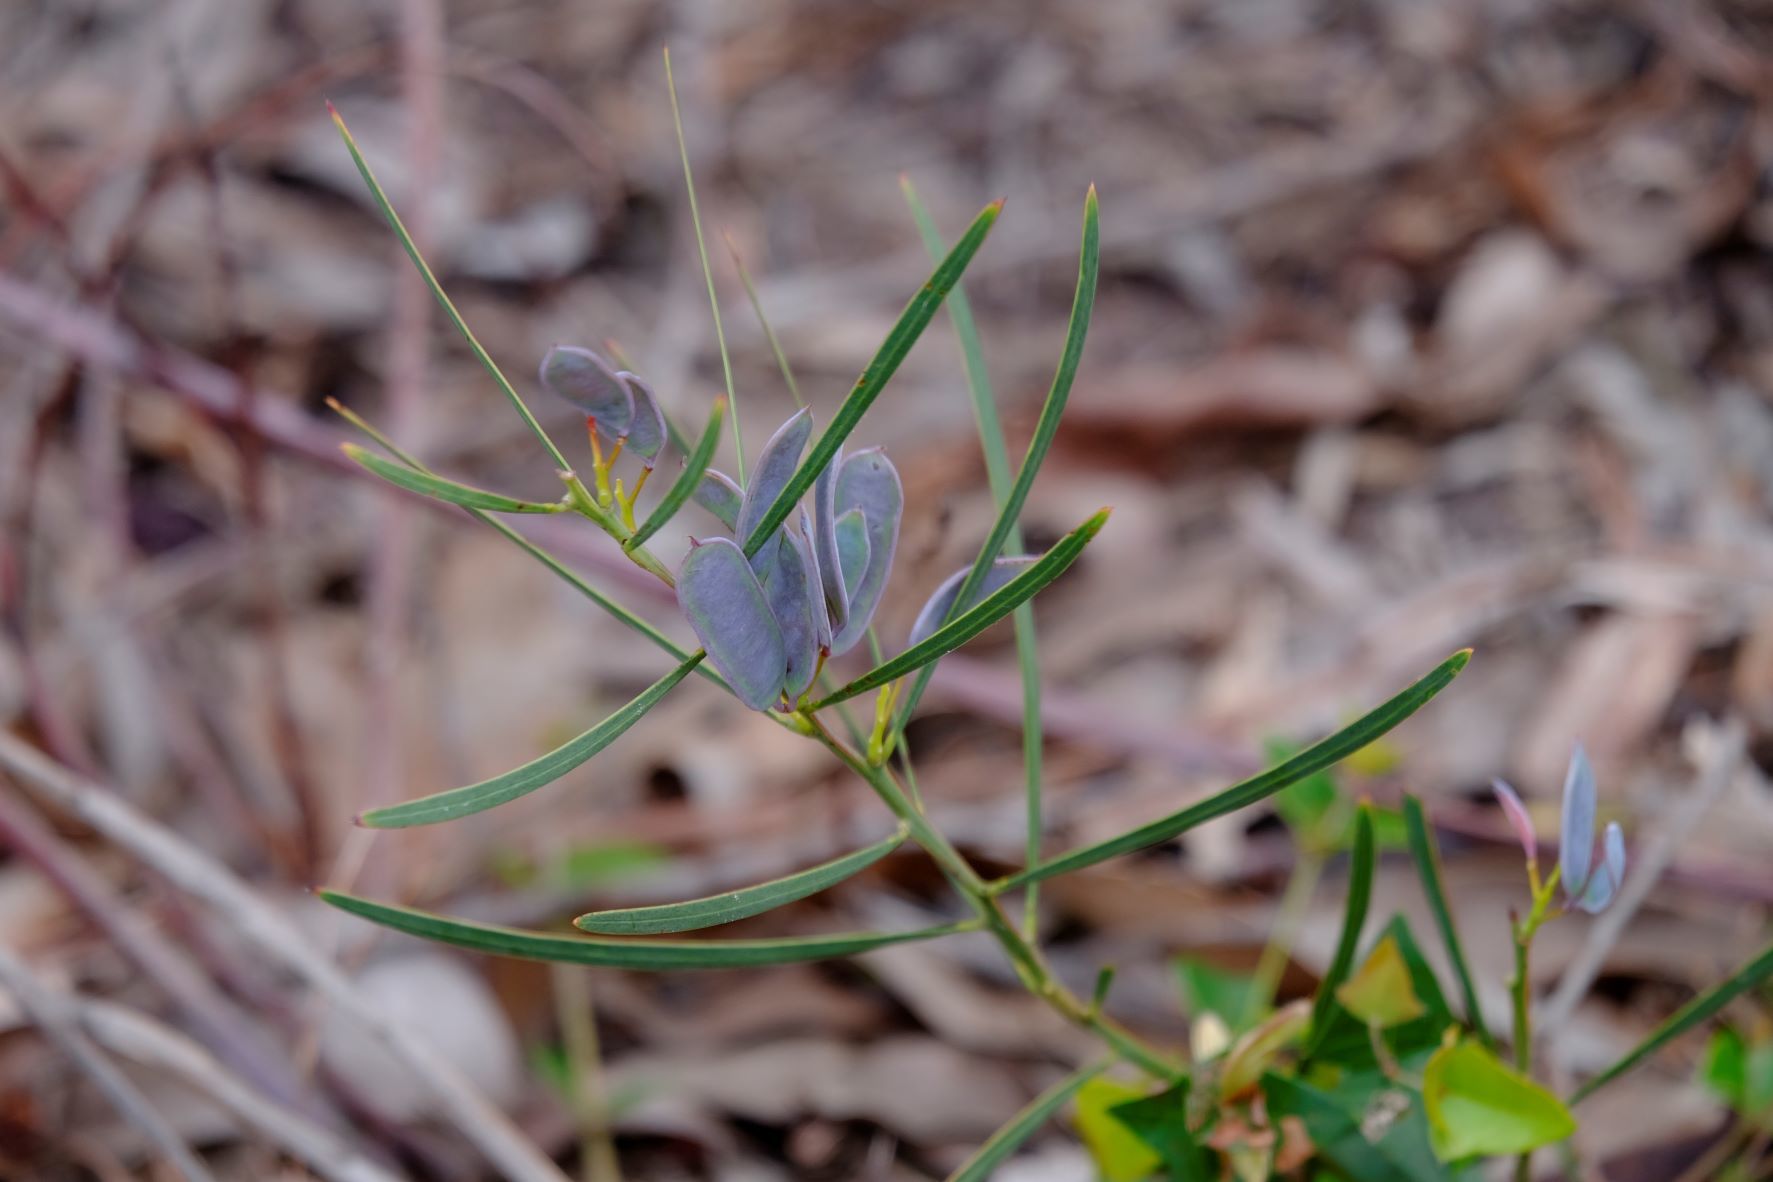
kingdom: Plantae
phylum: Tracheophyta
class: Magnoliopsida
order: Fabales
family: Fabaceae
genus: Acacia
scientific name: Acacia suaveolens
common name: Sweet acacia
